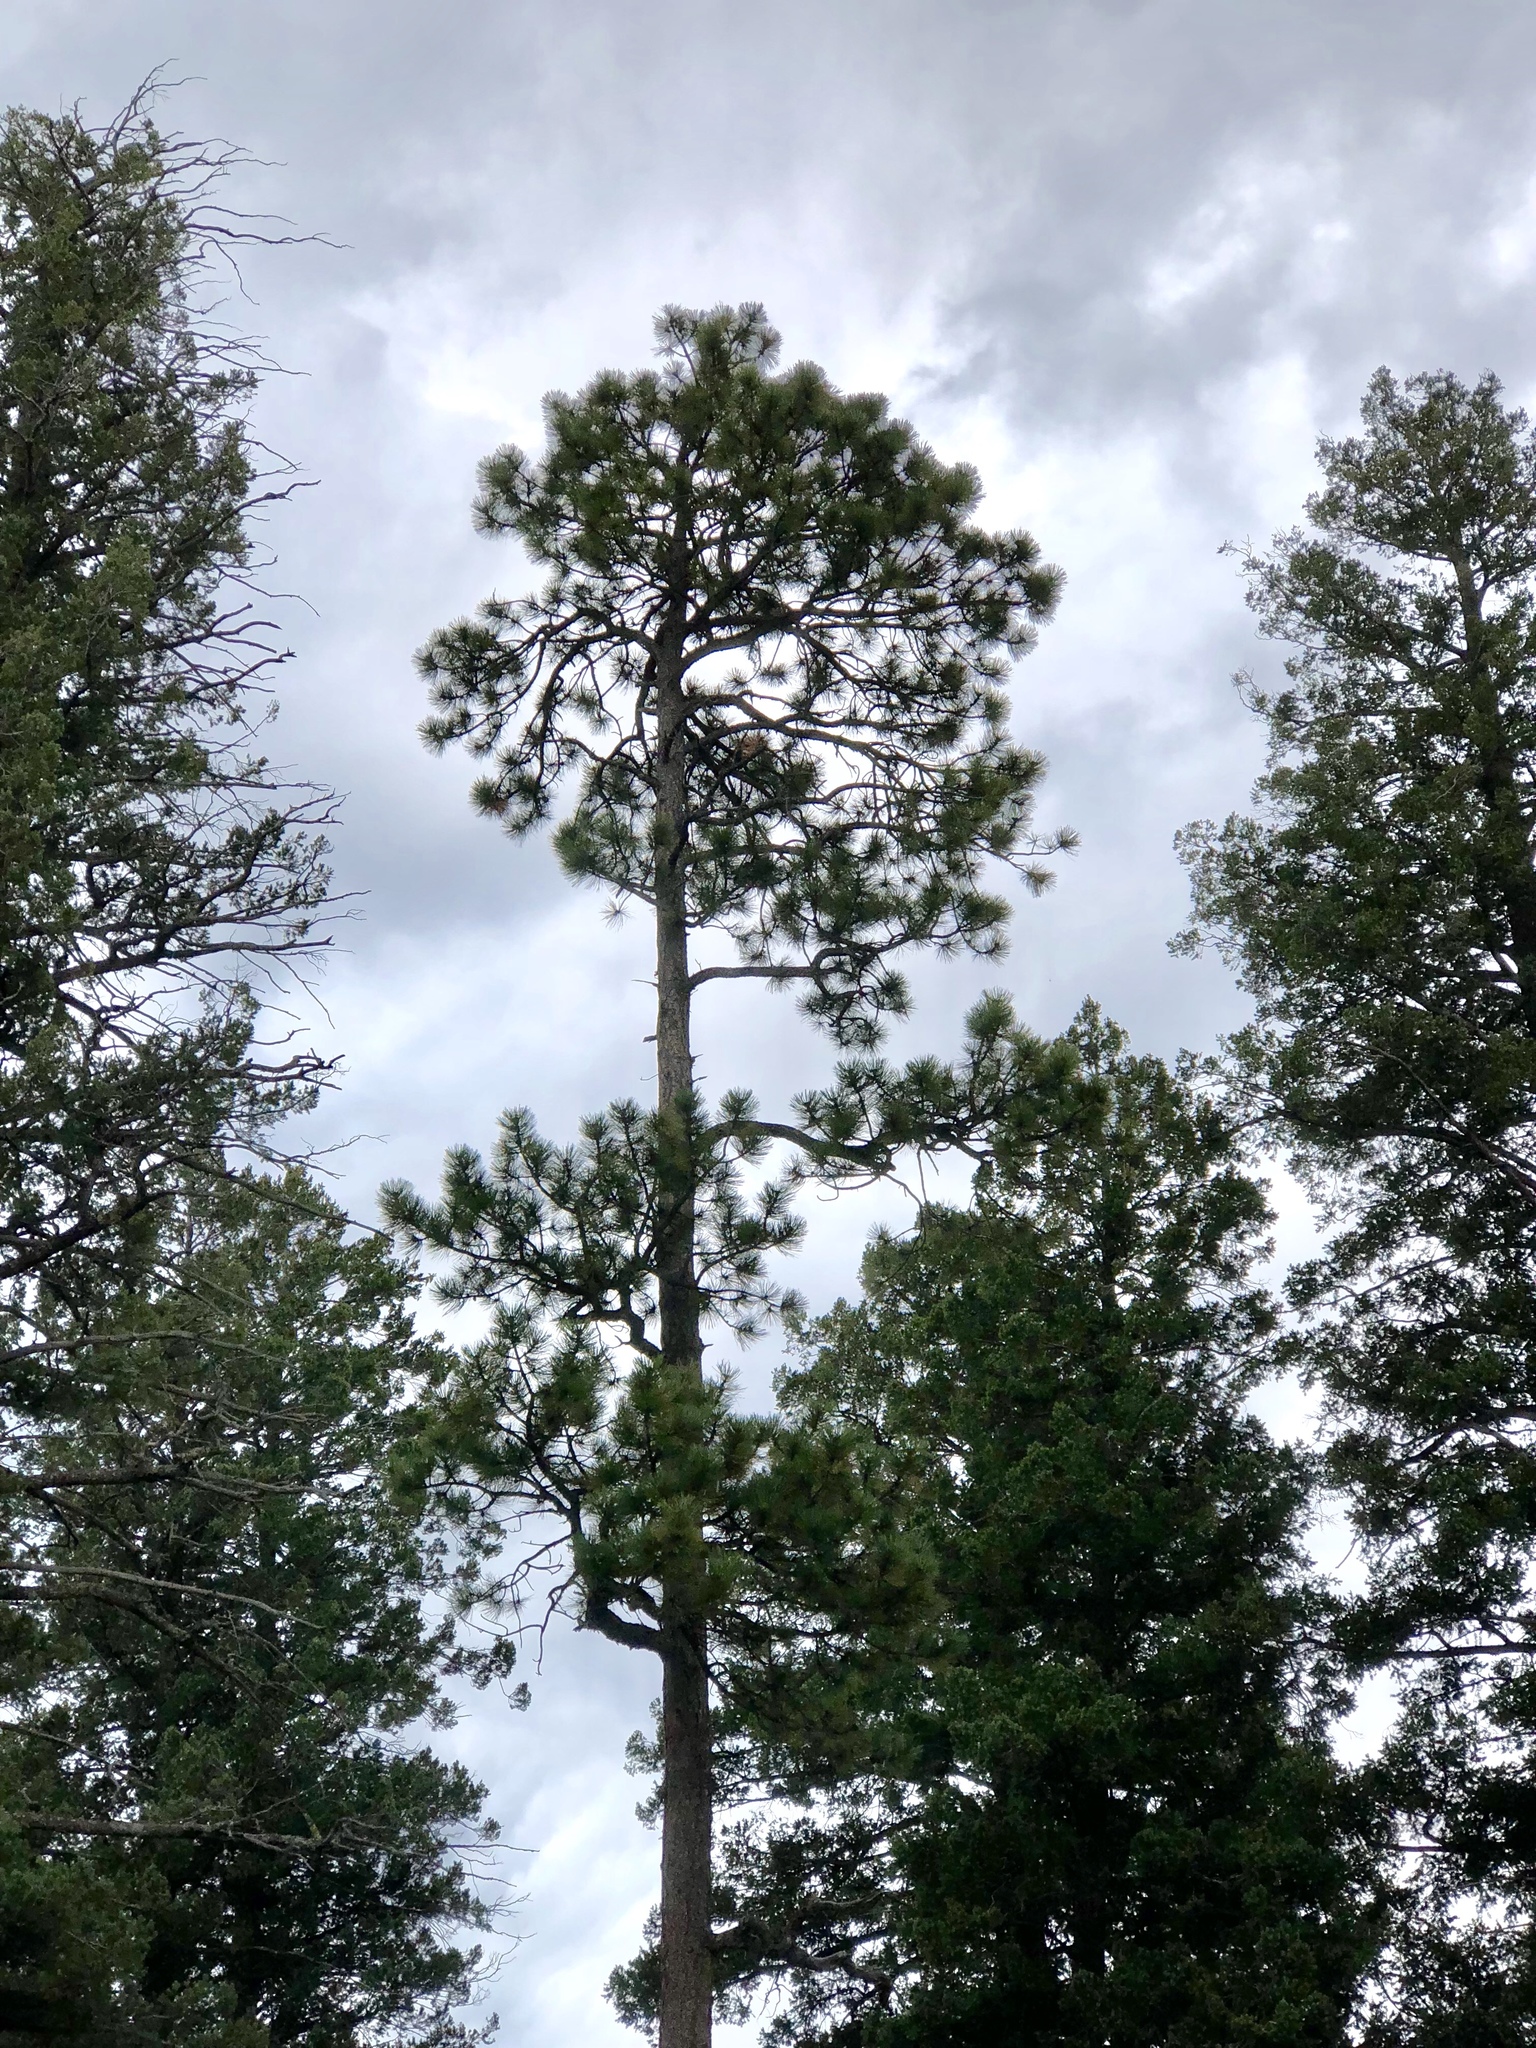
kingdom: Plantae
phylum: Tracheophyta
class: Pinopsida
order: Pinales
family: Pinaceae
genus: Pinus
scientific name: Pinus ponderosa
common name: Western yellow-pine
